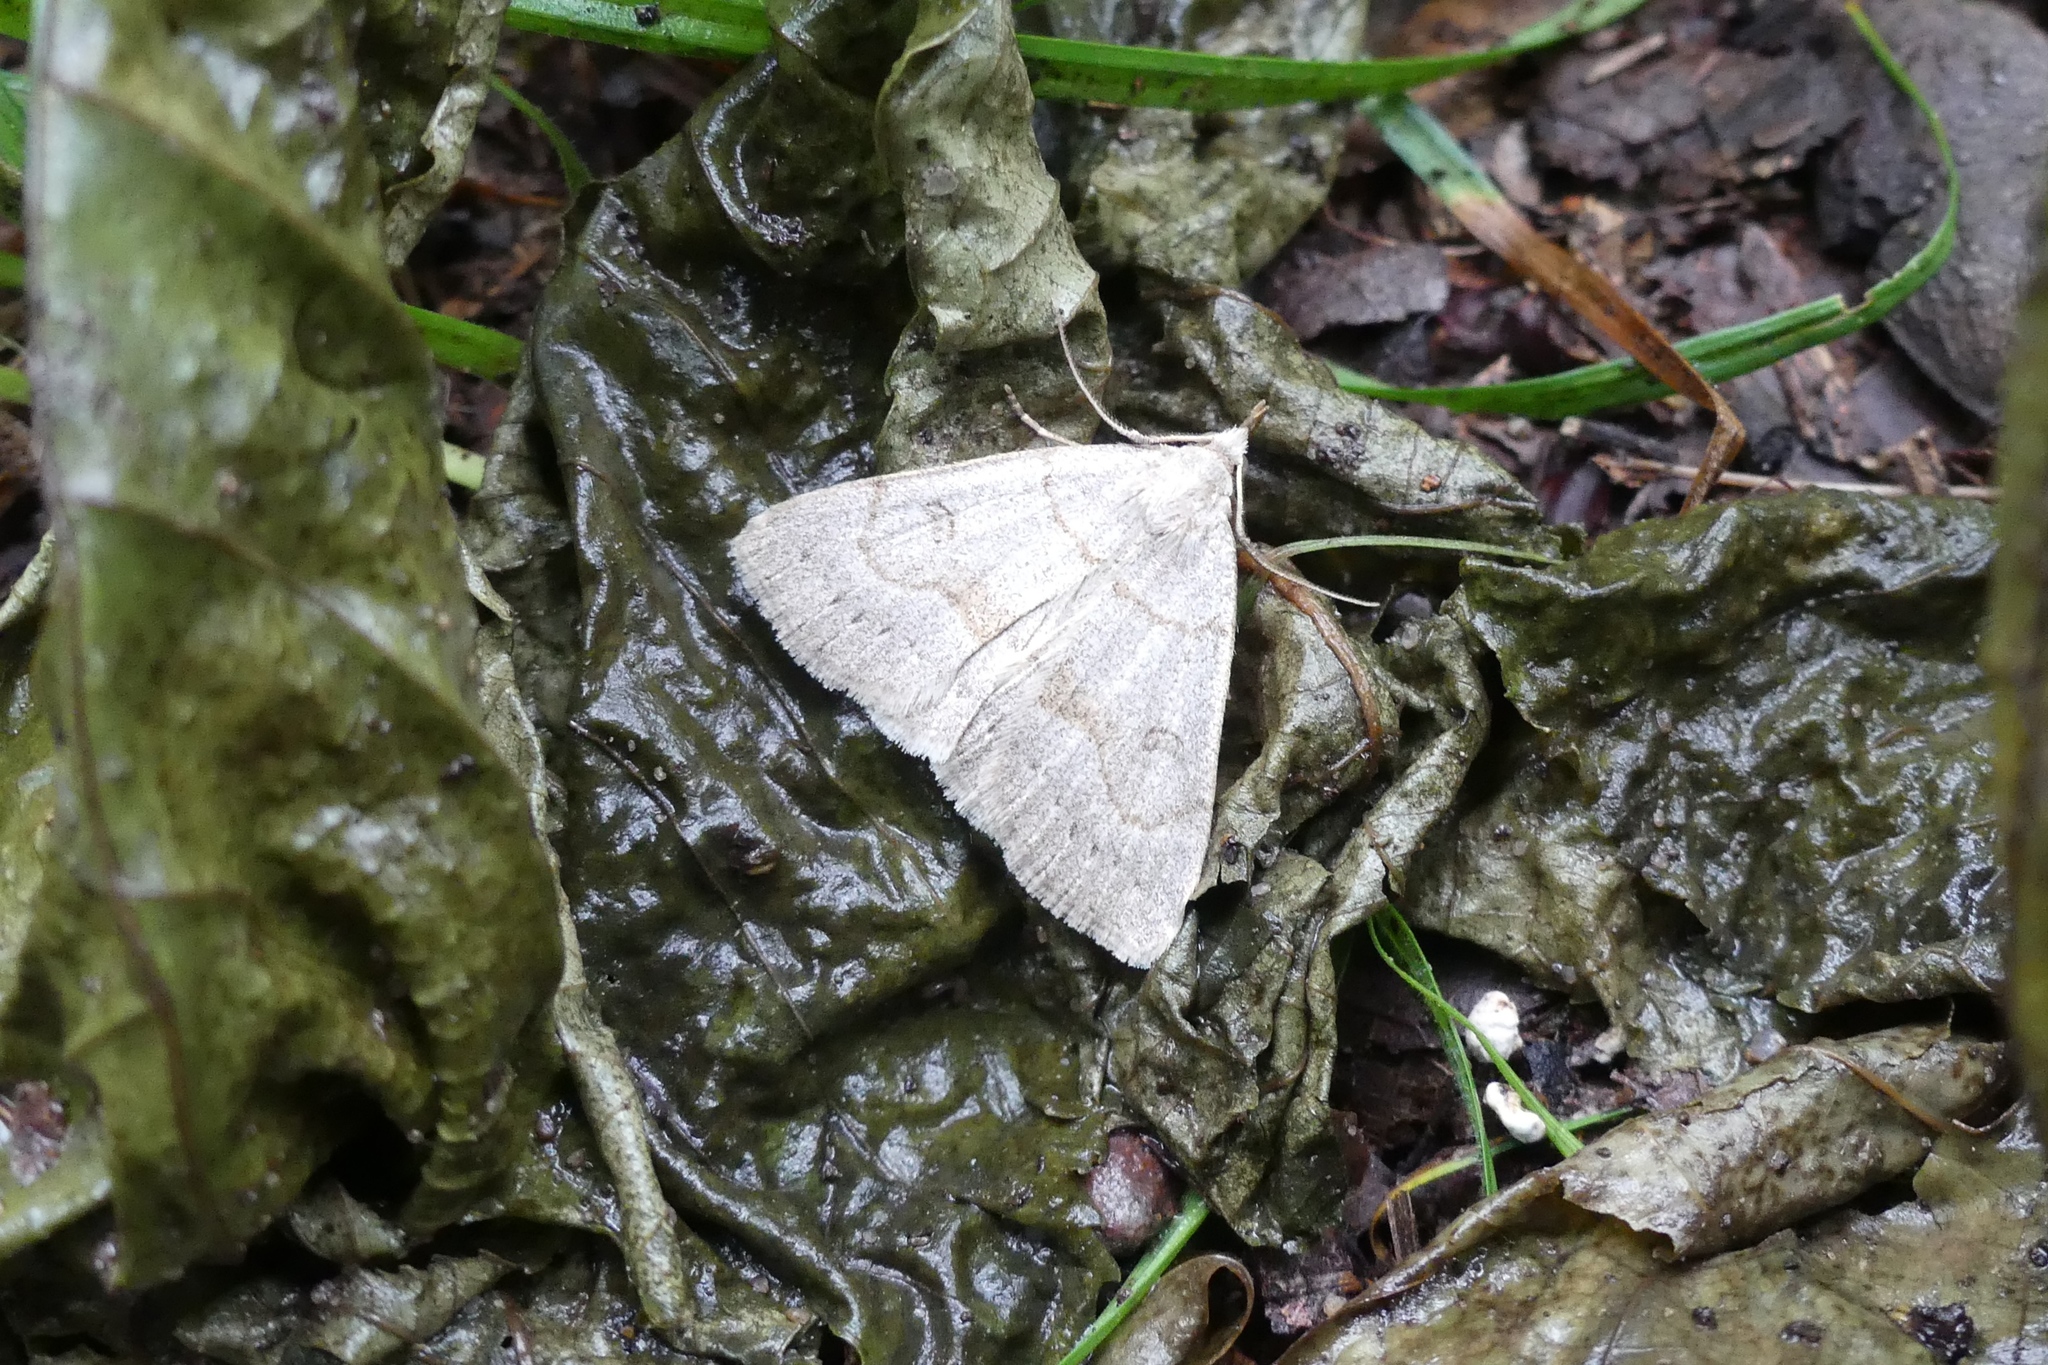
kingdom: Animalia
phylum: Arthropoda
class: Insecta
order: Lepidoptera
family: Erebidae
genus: Macrochilo
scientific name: Macrochilo morbidalis
